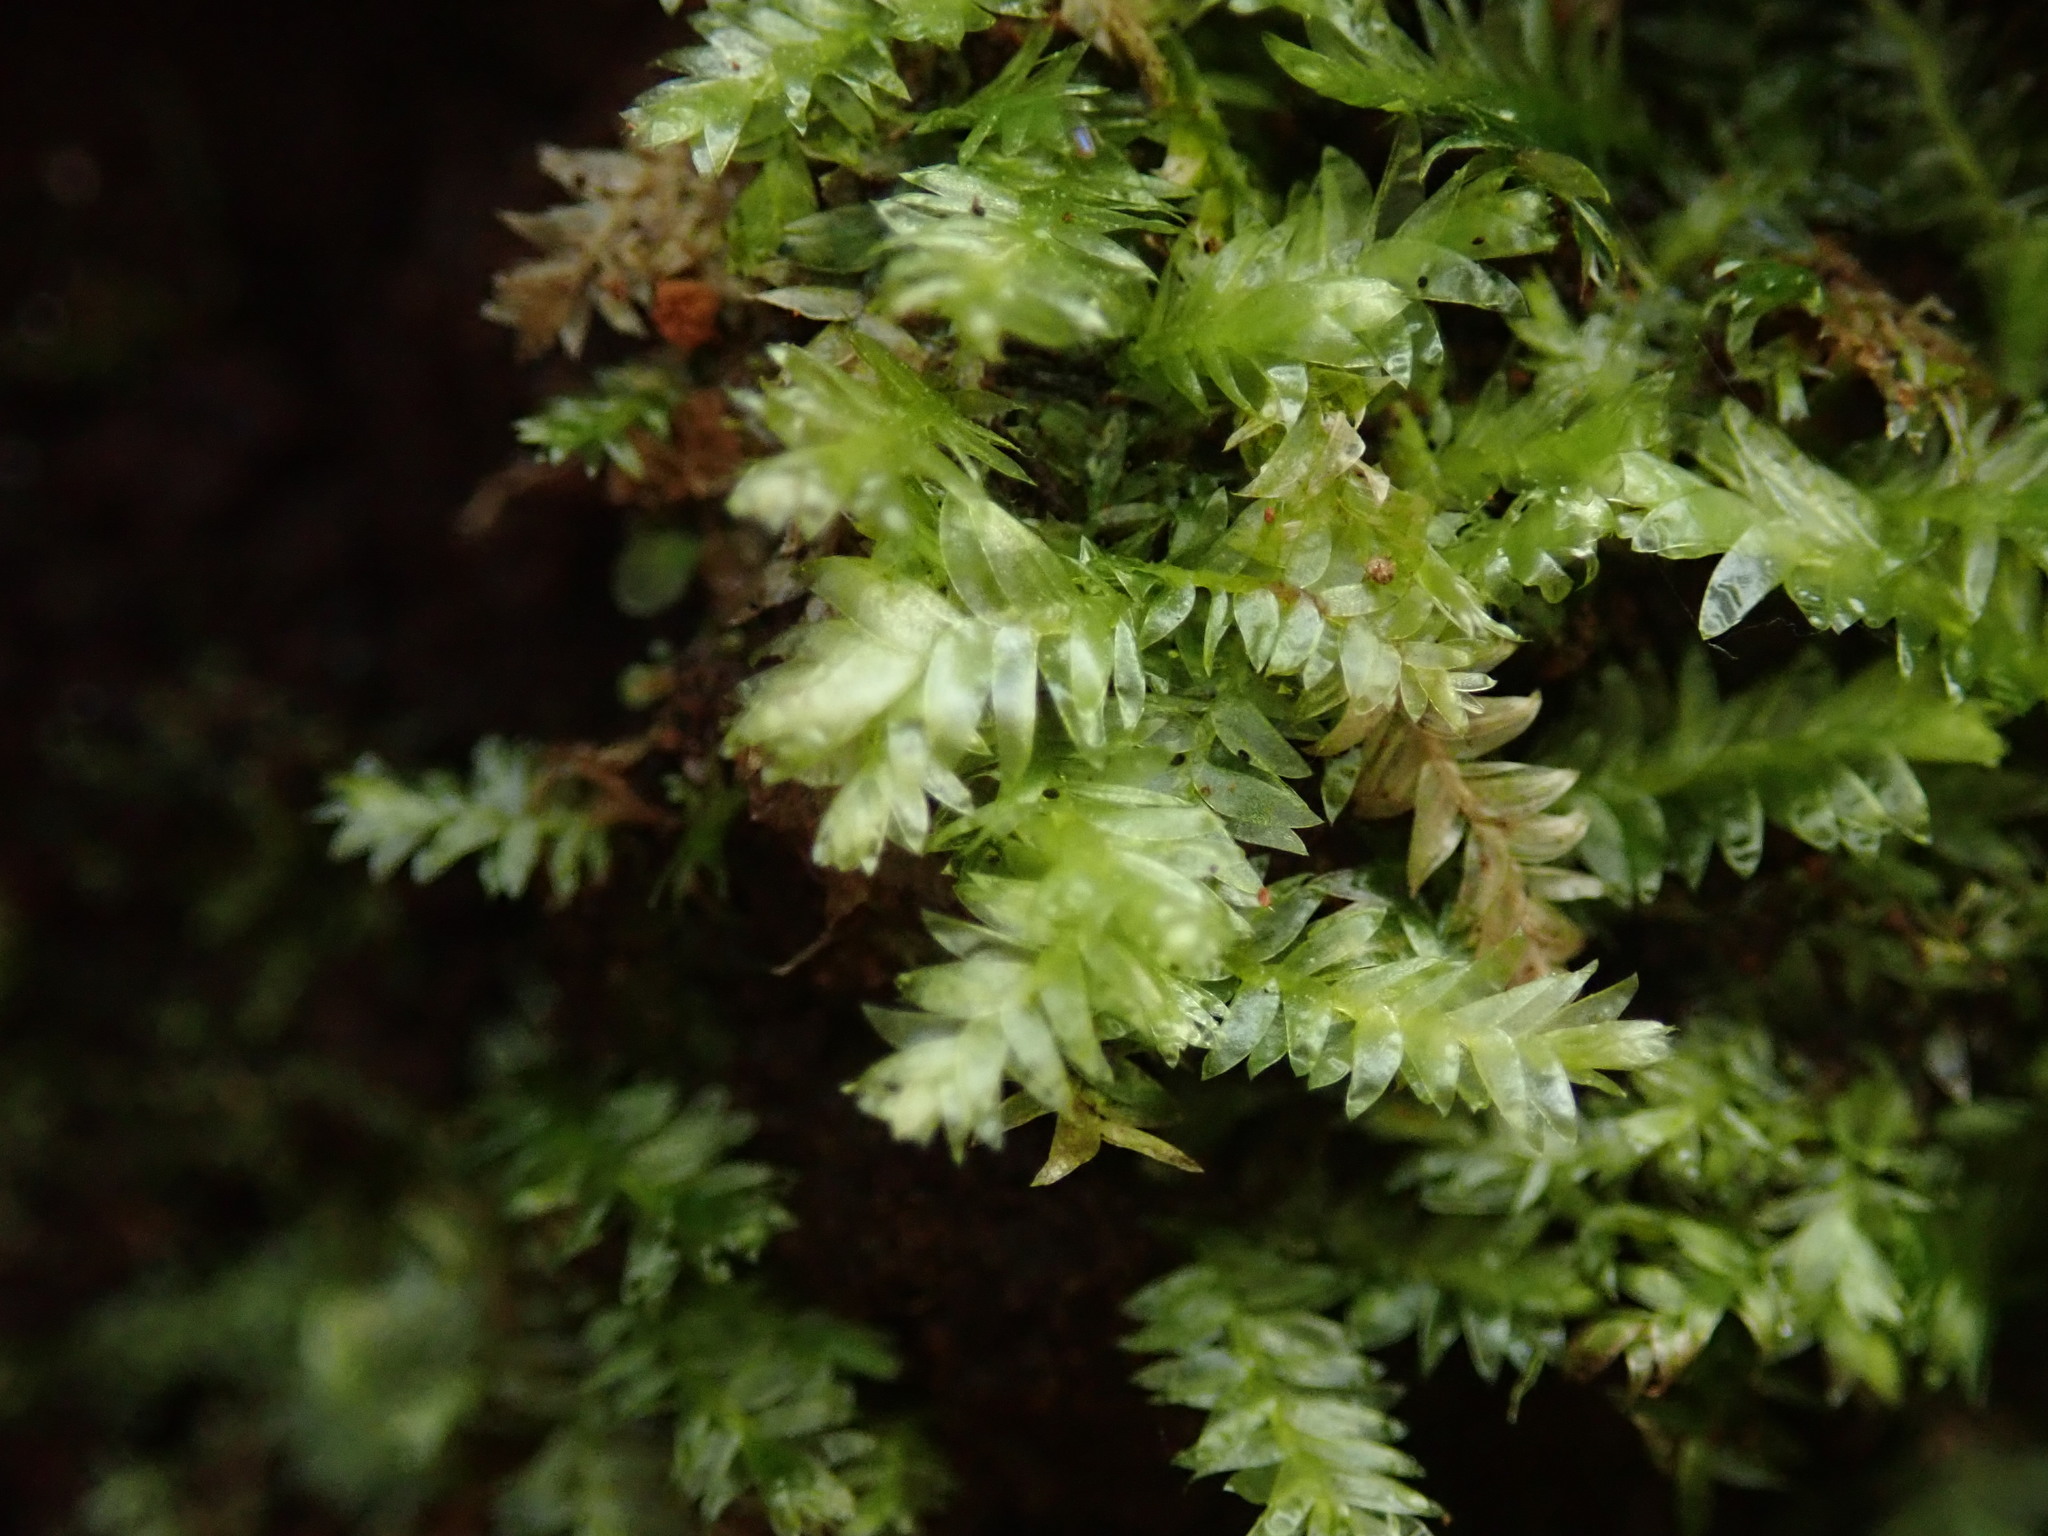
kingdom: Plantae
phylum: Bryophyta
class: Bryopsida
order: Hypnales
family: Plagiotheciaceae
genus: Pseudotaxiphyllum
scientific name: Pseudotaxiphyllum elegans
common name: Elegant silk moss
